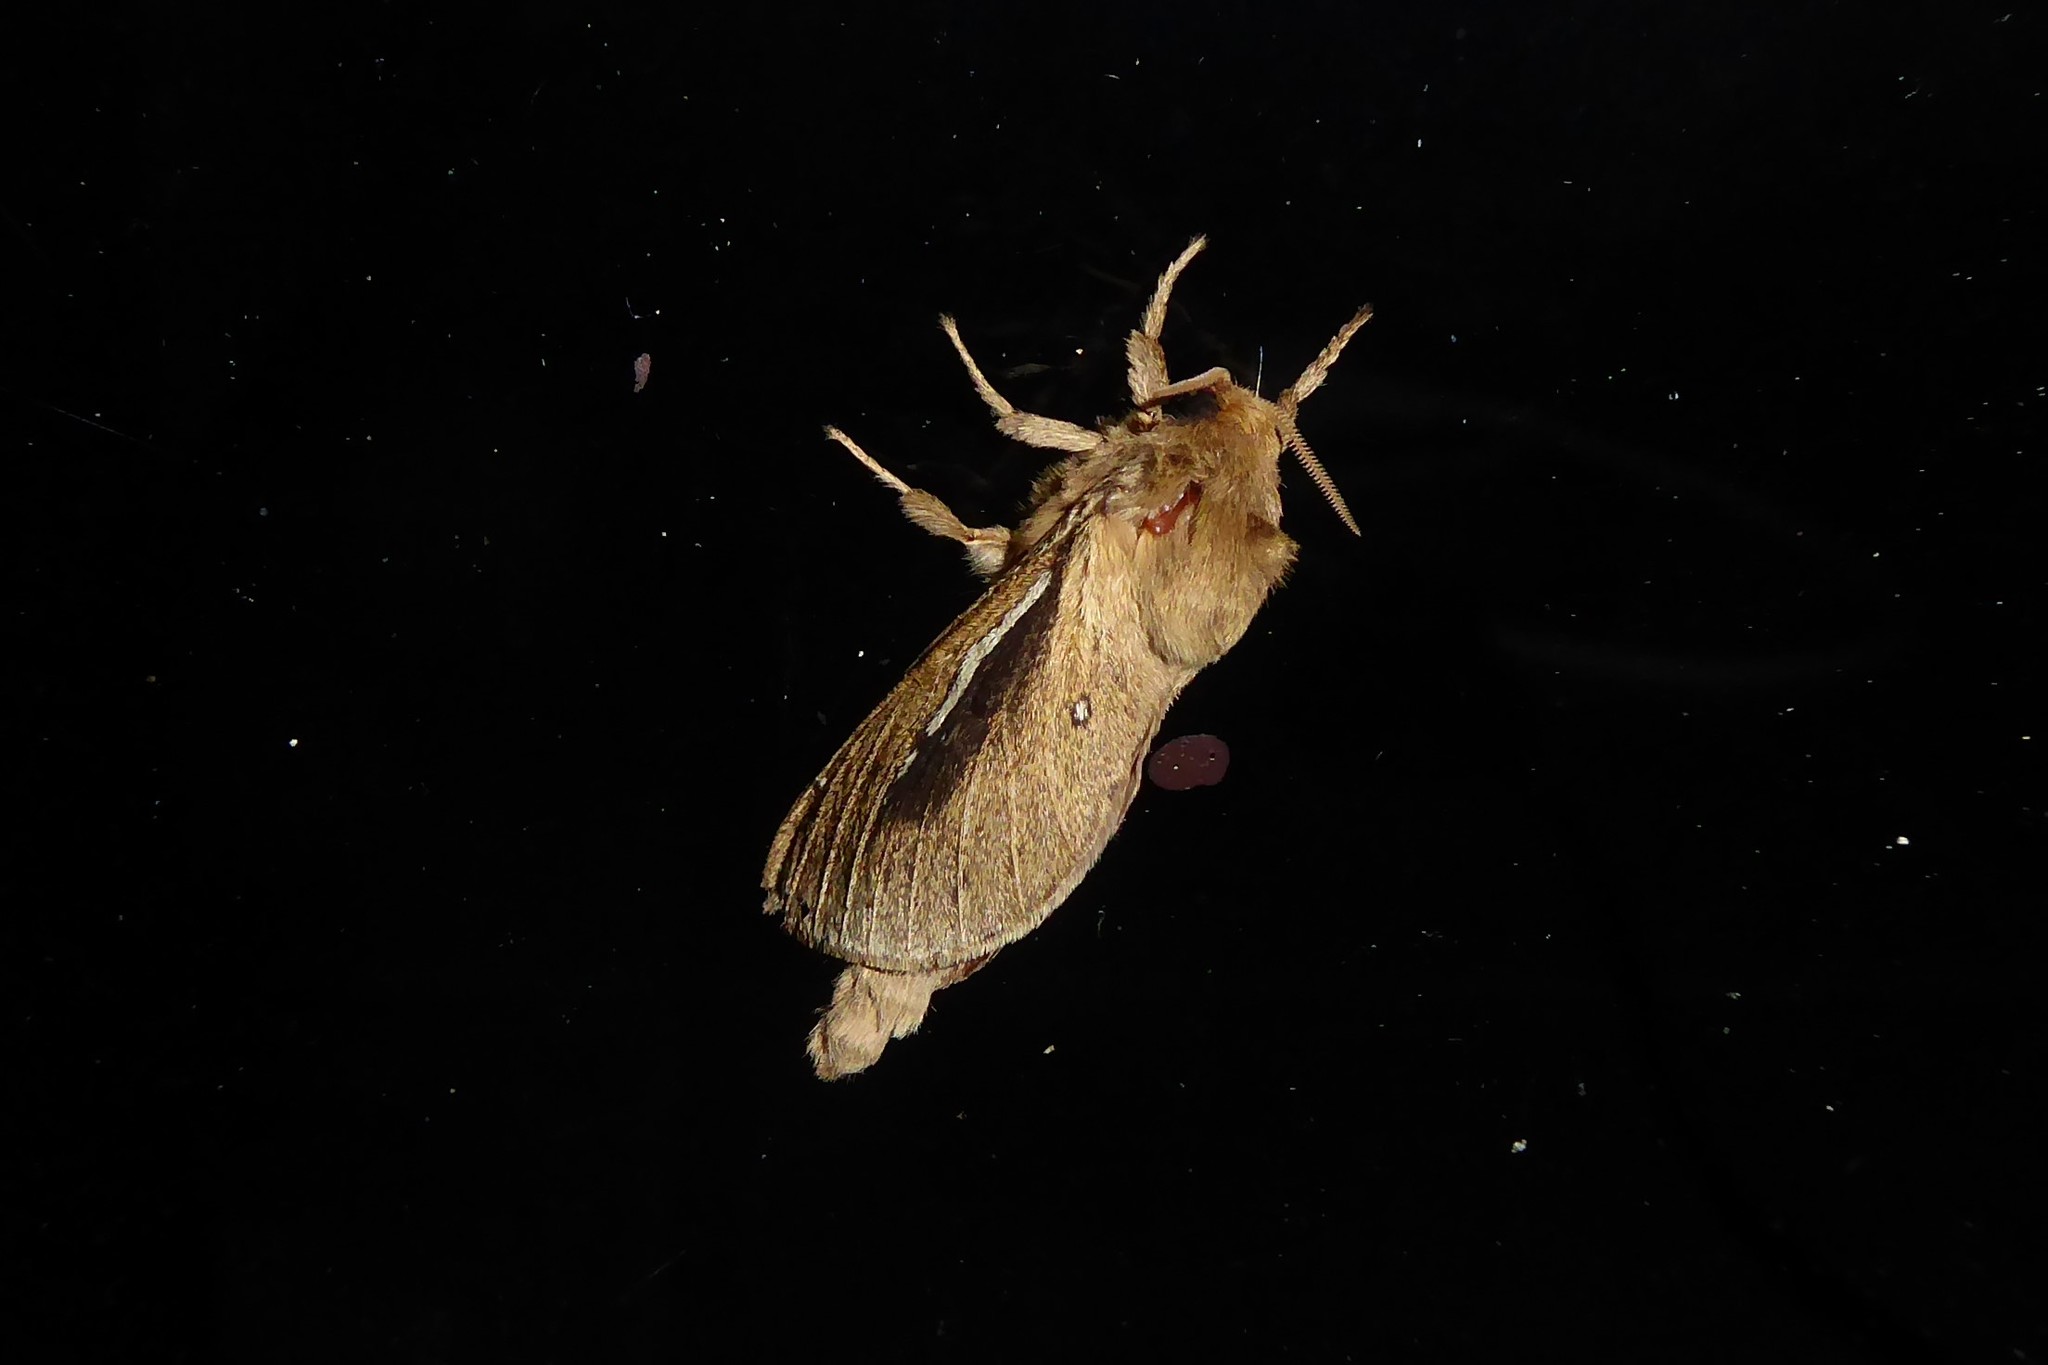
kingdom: Animalia
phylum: Arthropoda
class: Insecta
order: Lepidoptera
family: Hepialidae
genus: Wiseana
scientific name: Wiseana umbraculatus
